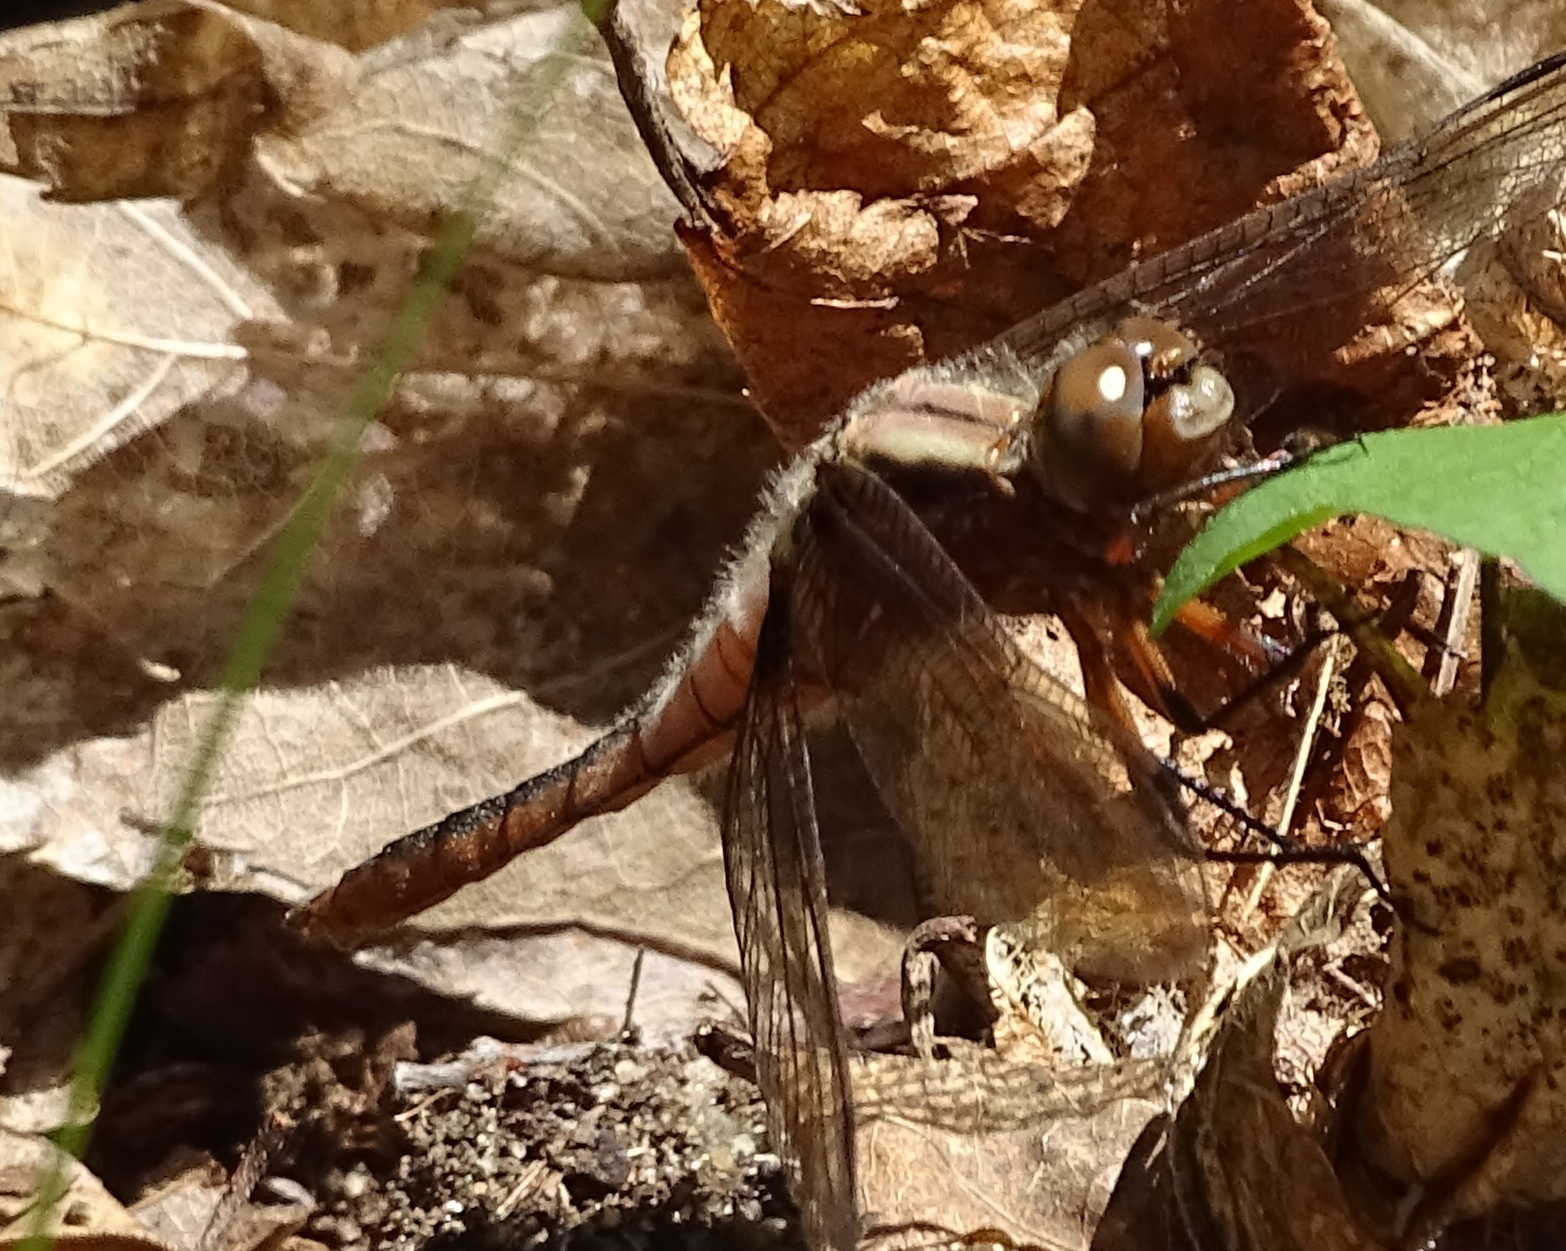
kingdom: Animalia
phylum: Arthropoda
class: Insecta
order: Odonata
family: Libellulidae
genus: Ladona
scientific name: Ladona julia
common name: Chalk-fronted corporal
